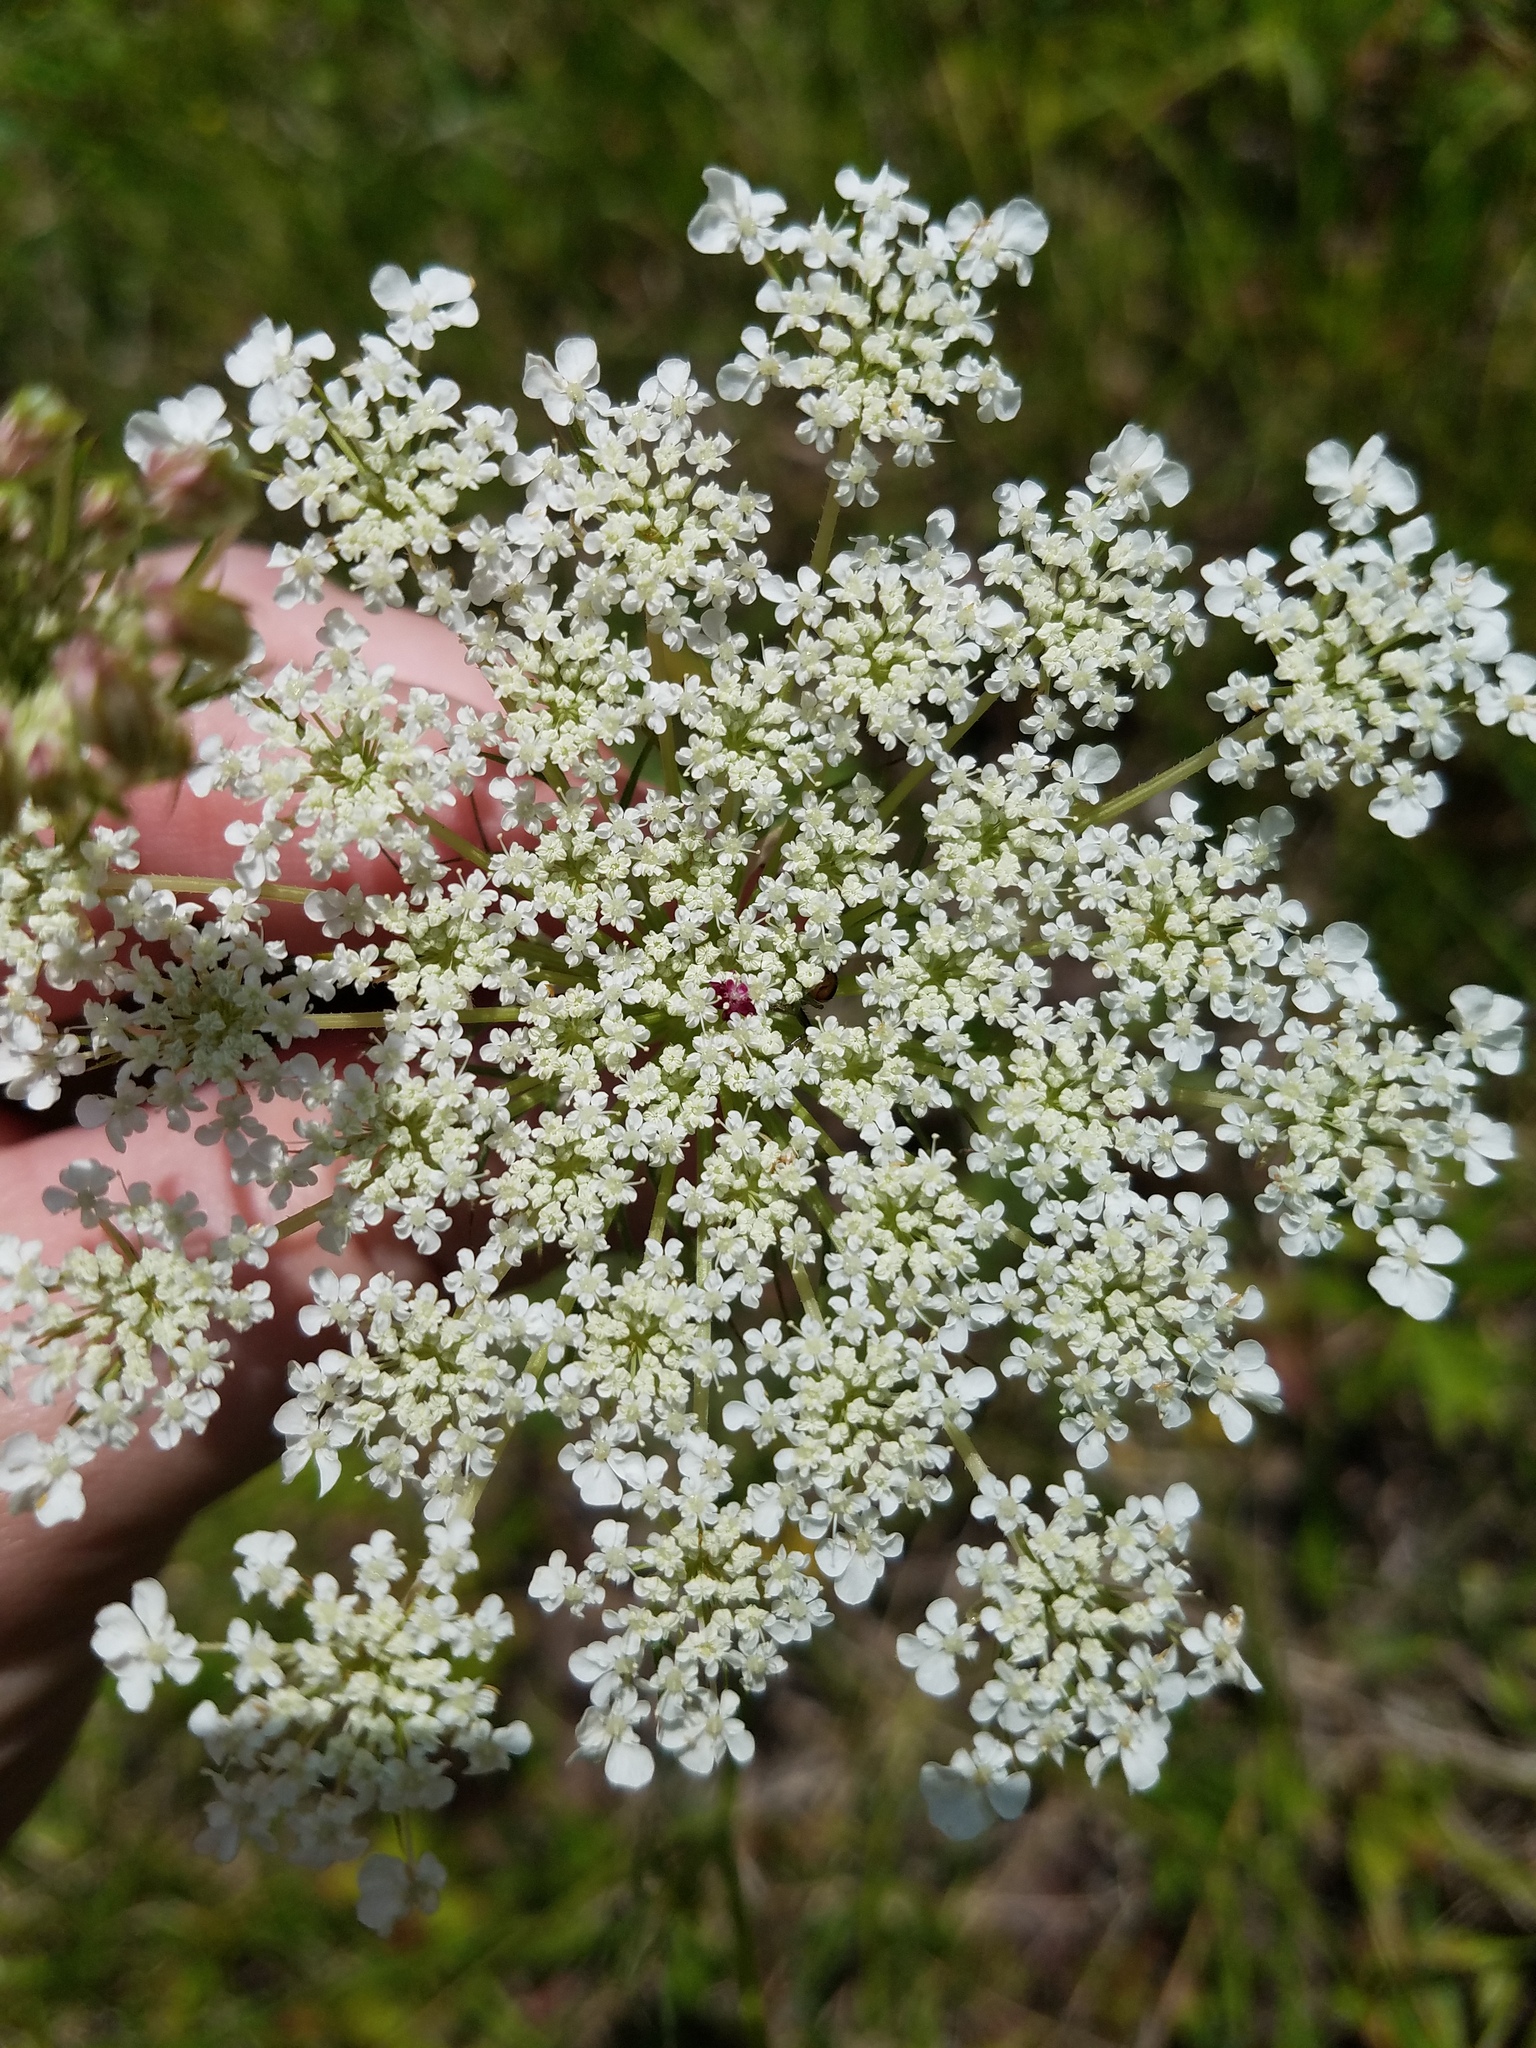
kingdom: Plantae
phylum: Tracheophyta
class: Magnoliopsida
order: Apiales
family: Apiaceae
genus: Daucus
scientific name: Daucus carota
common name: Wild carrot
